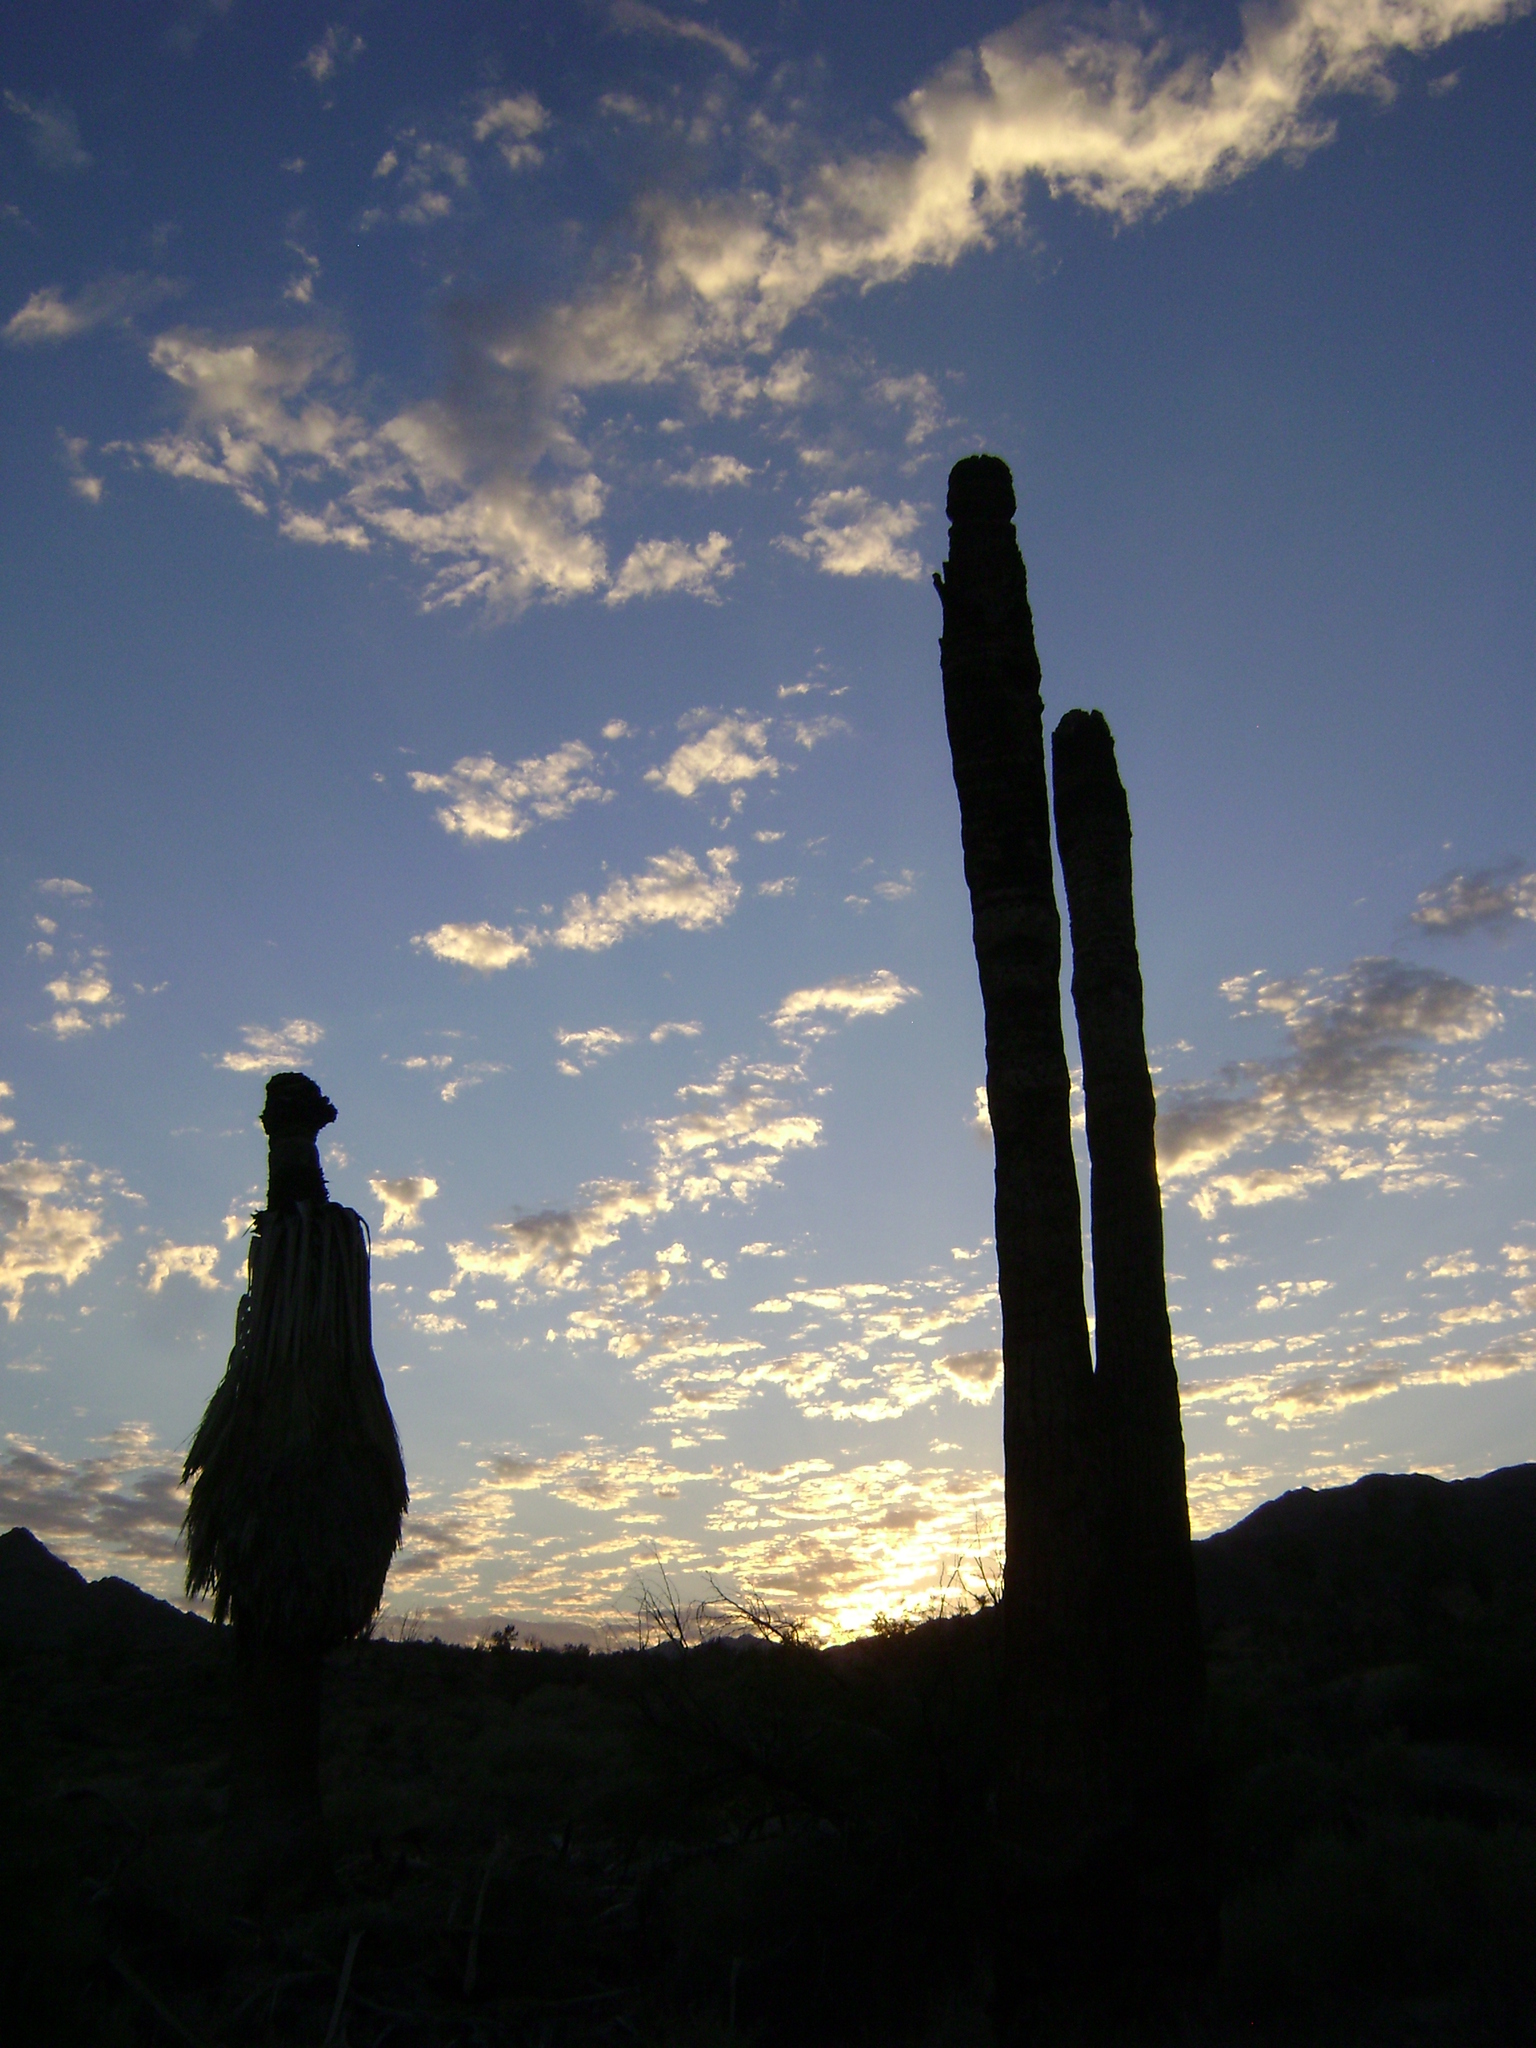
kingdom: Plantae
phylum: Tracheophyta
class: Liliopsida
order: Arecales
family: Arecaceae
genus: Washingtonia
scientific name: Washingtonia filifera
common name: California fan palm
